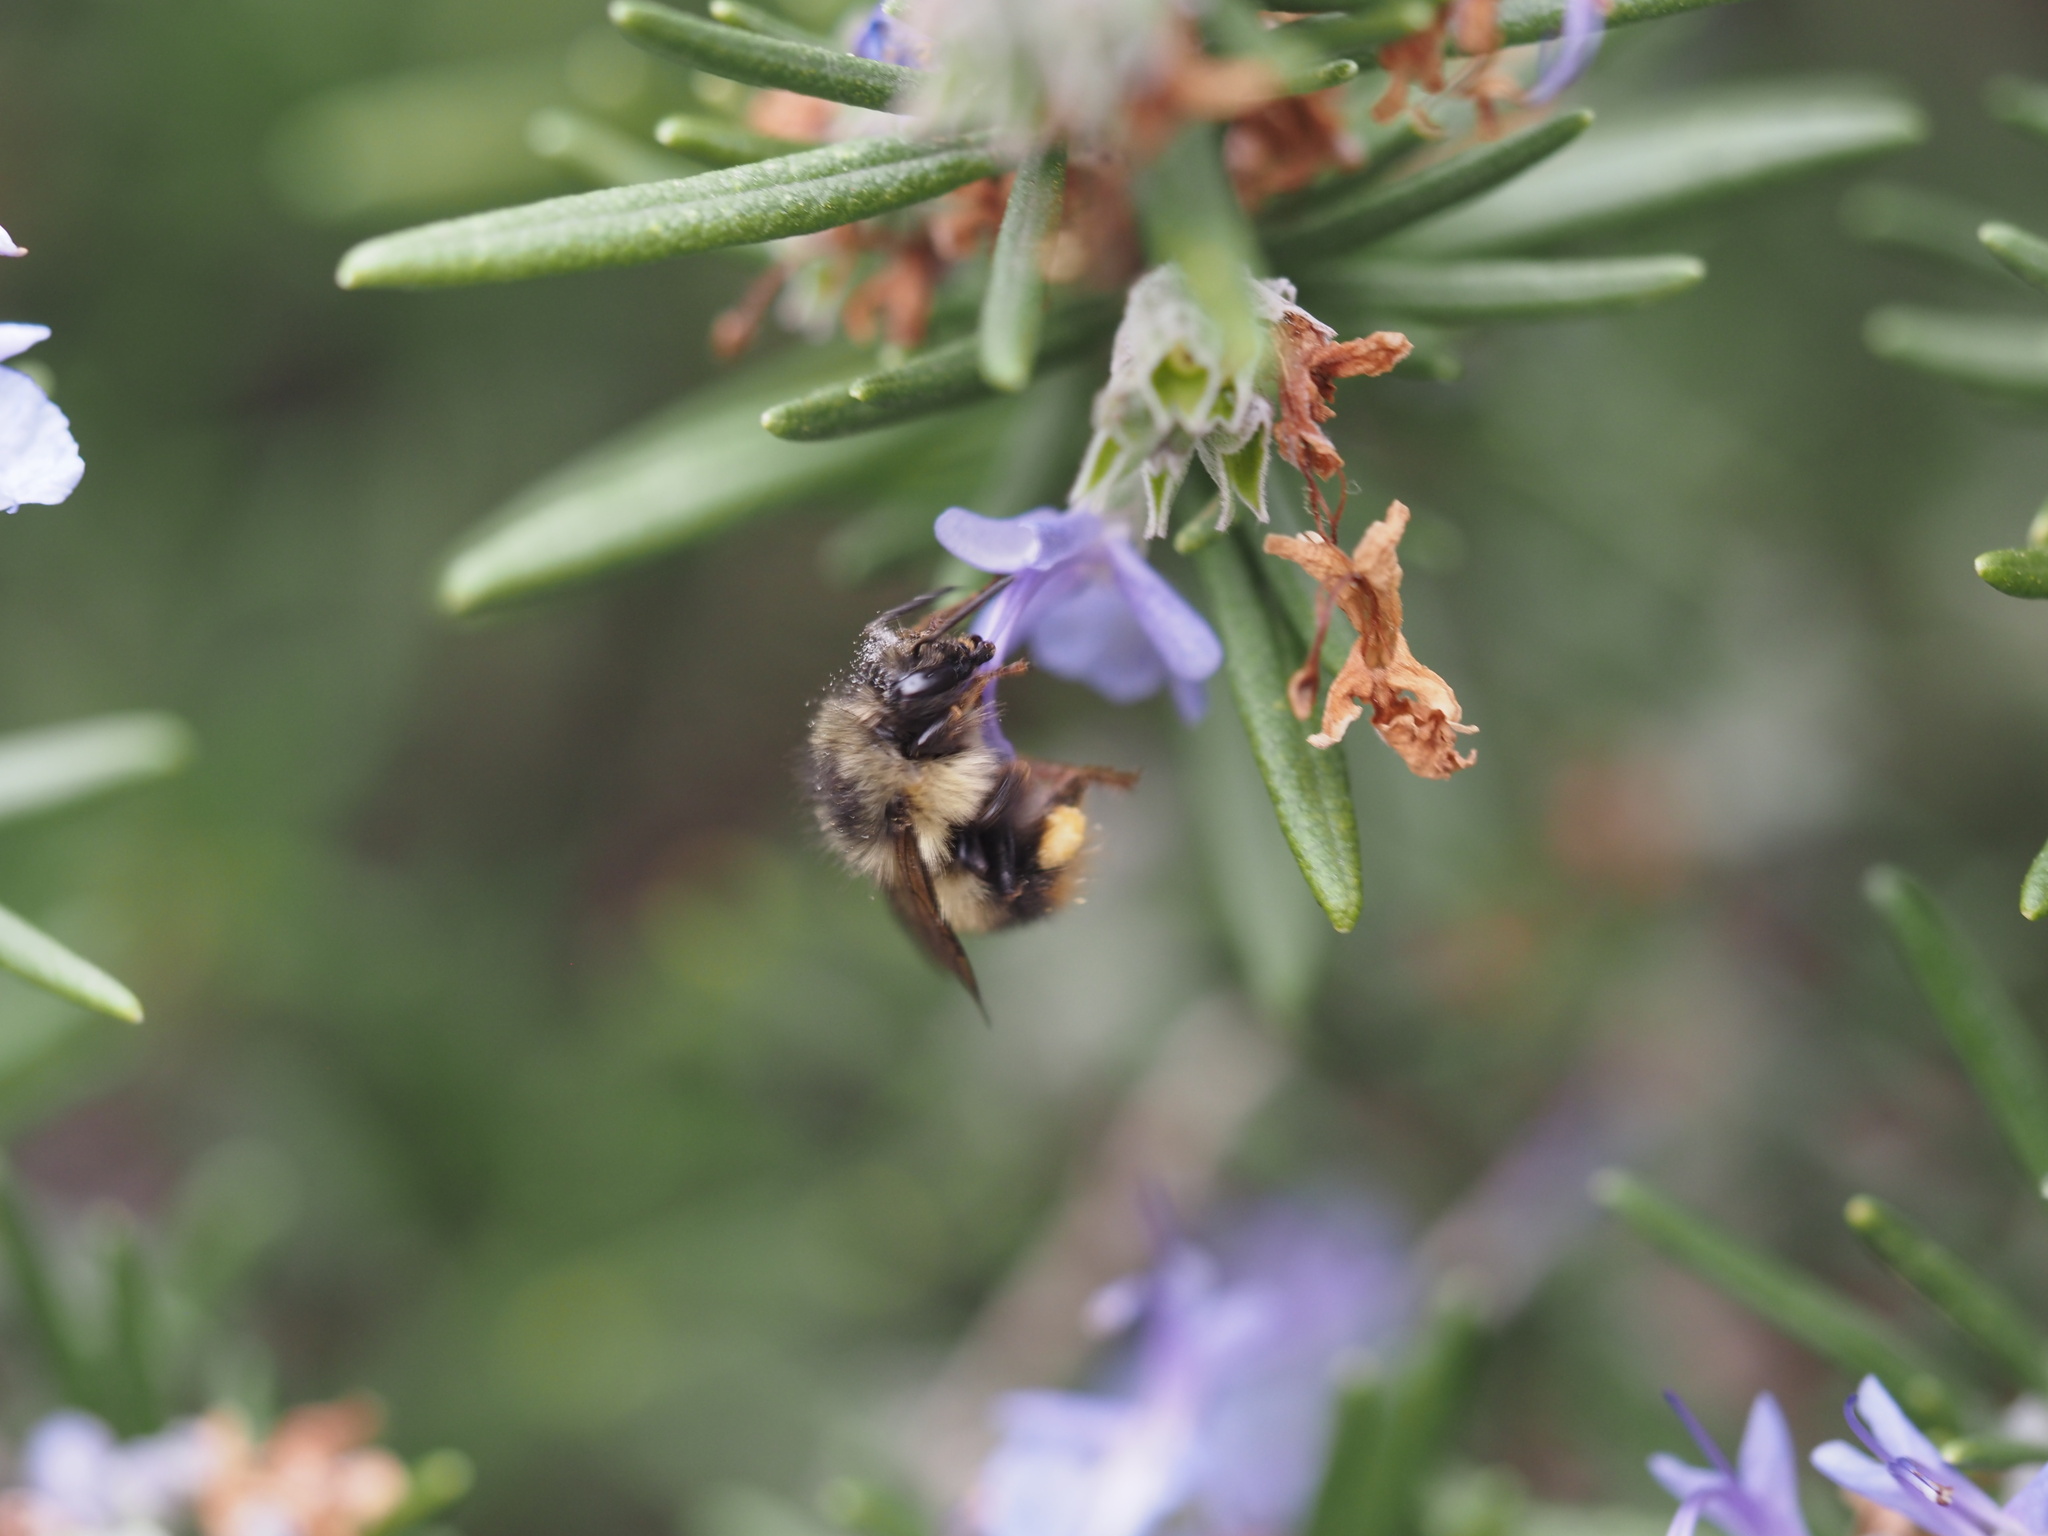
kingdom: Animalia
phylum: Arthropoda
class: Insecta
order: Hymenoptera
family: Apidae
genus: Bombus
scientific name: Bombus mixtus
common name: Fuzzy-horned bumble bee
